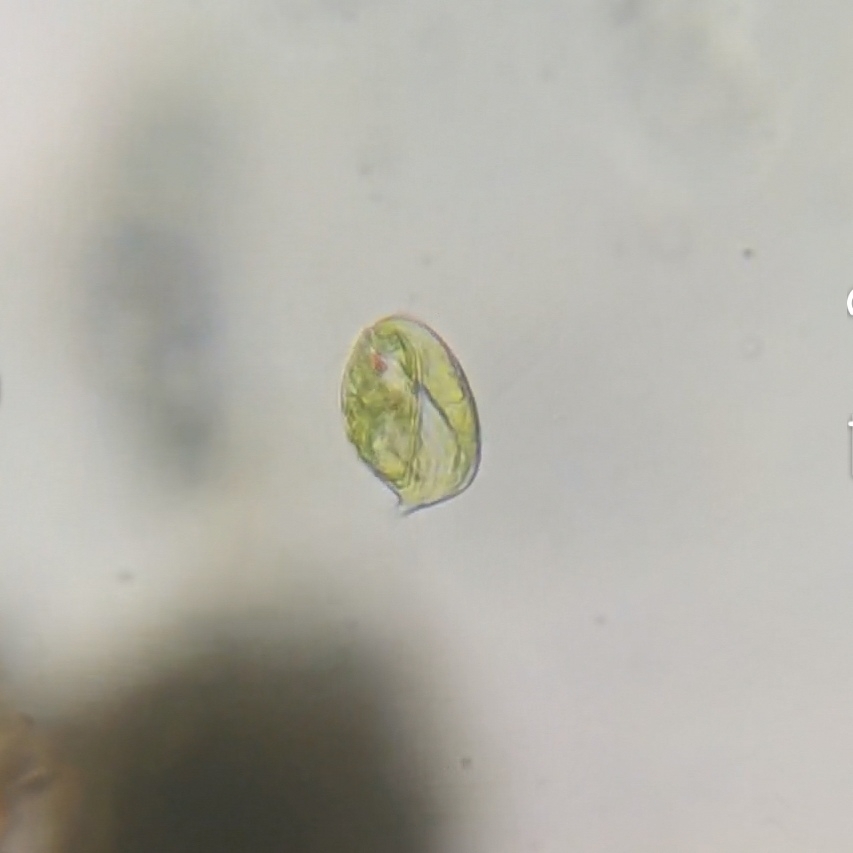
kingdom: Protozoa
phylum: Euglenozoa
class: Euglenoidea
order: Euglenida
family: Phacidae
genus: Phacus
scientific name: Phacus alatus
